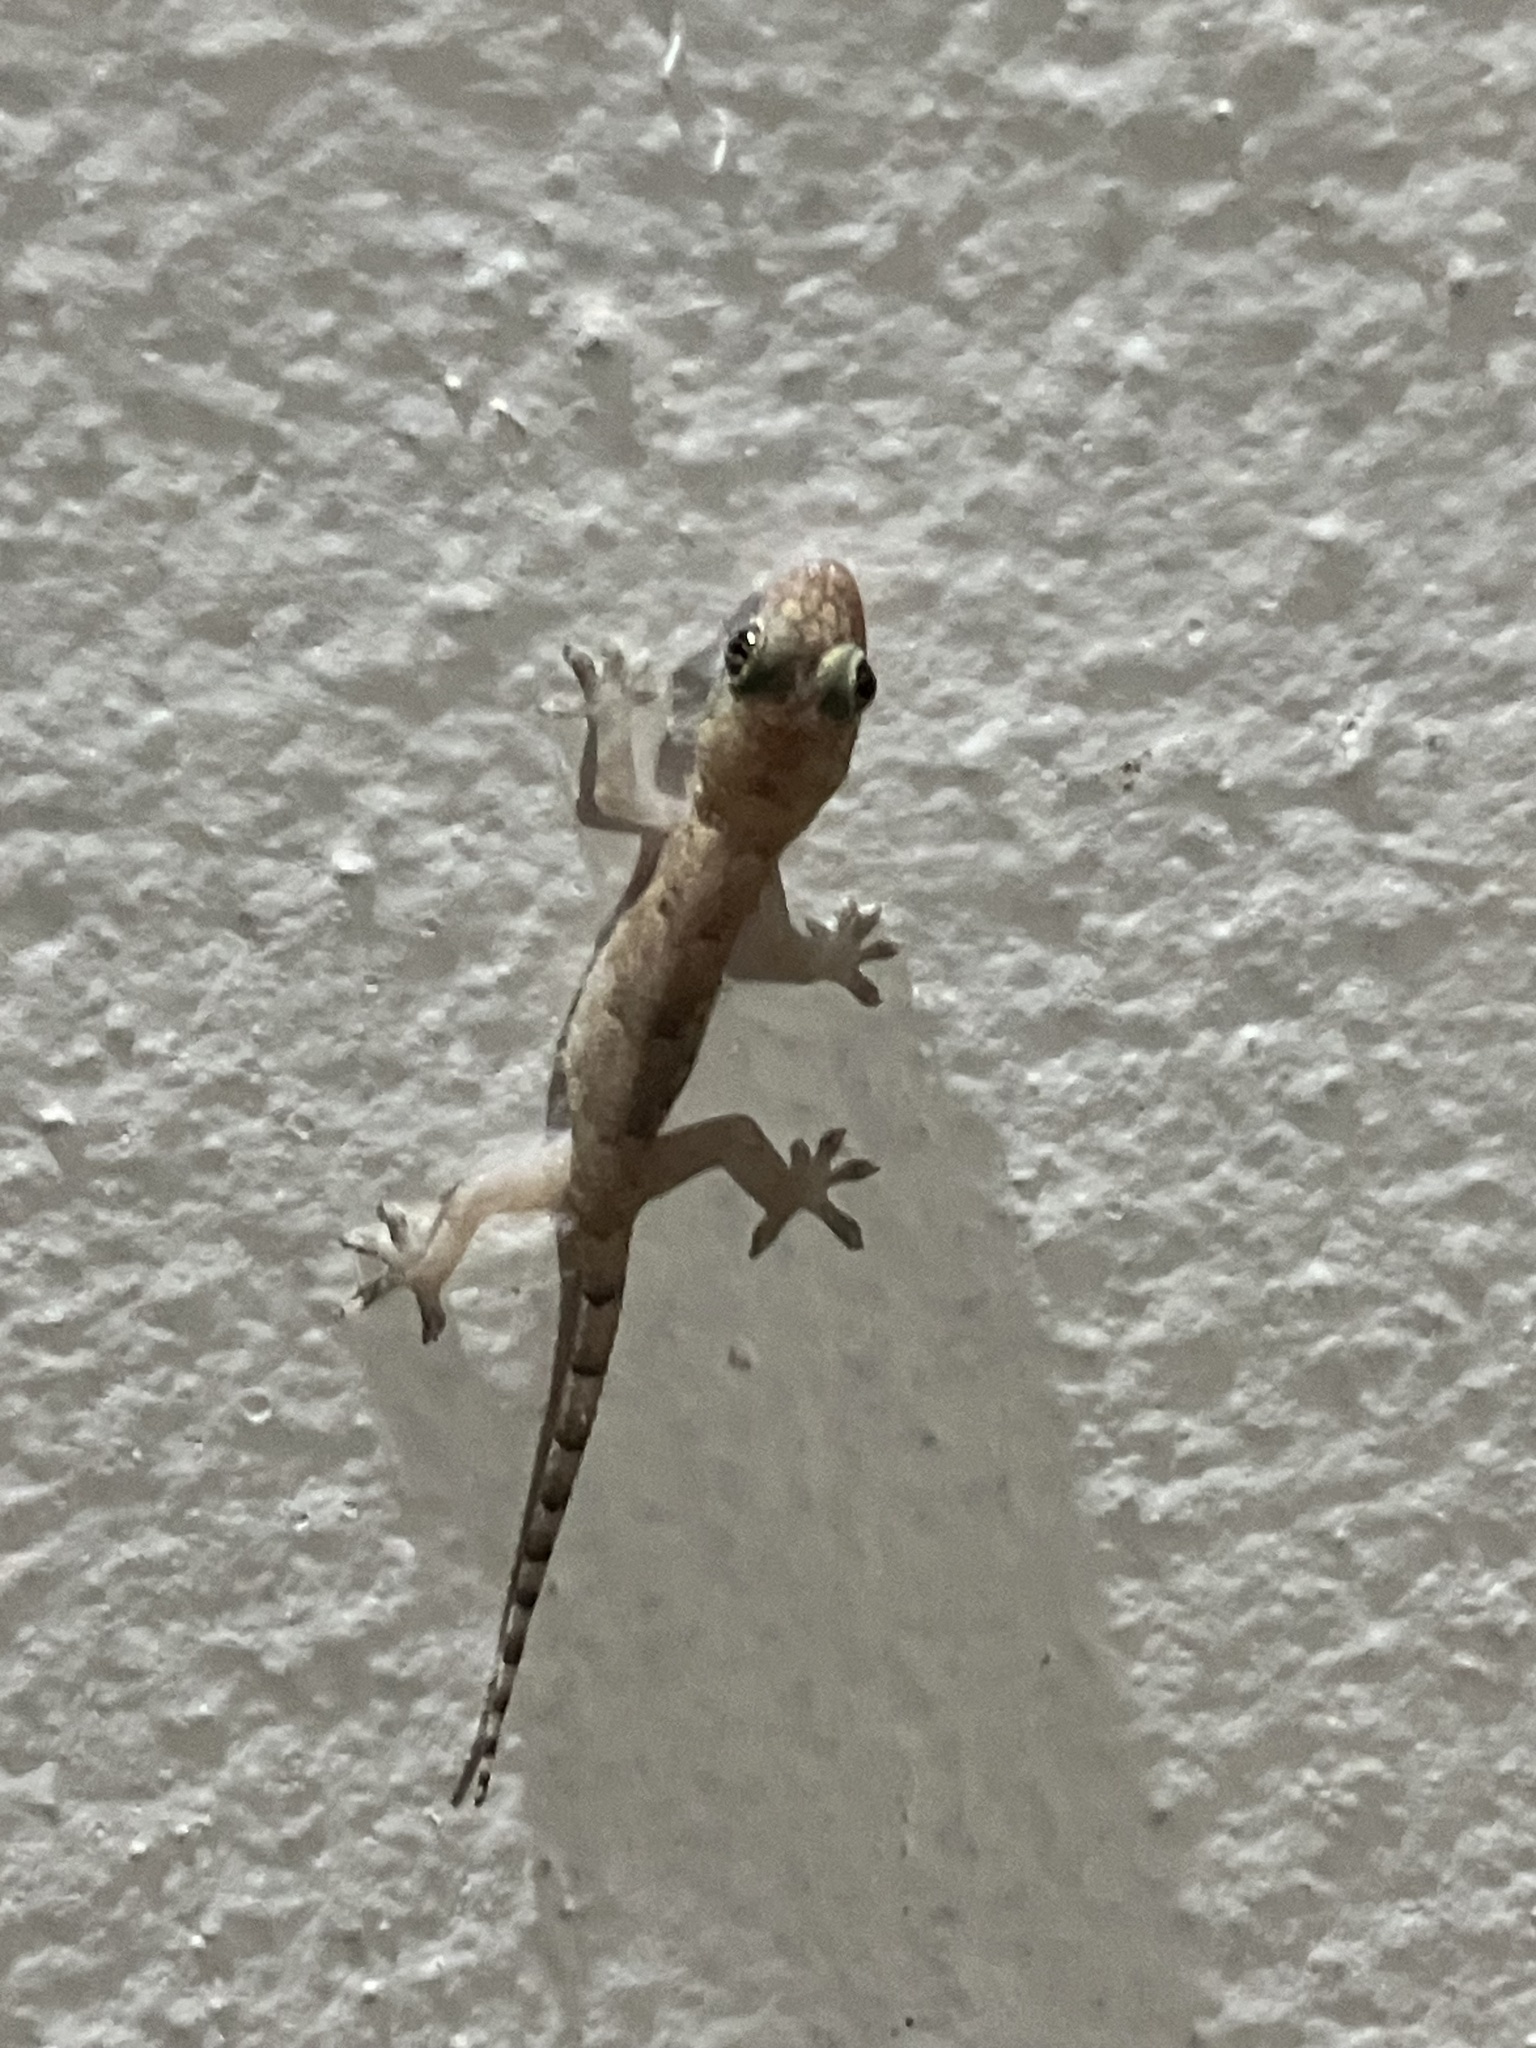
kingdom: Animalia
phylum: Chordata
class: Squamata
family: Gekkonidae
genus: Hemidactylus
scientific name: Hemidactylus mabouia
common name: House gecko
